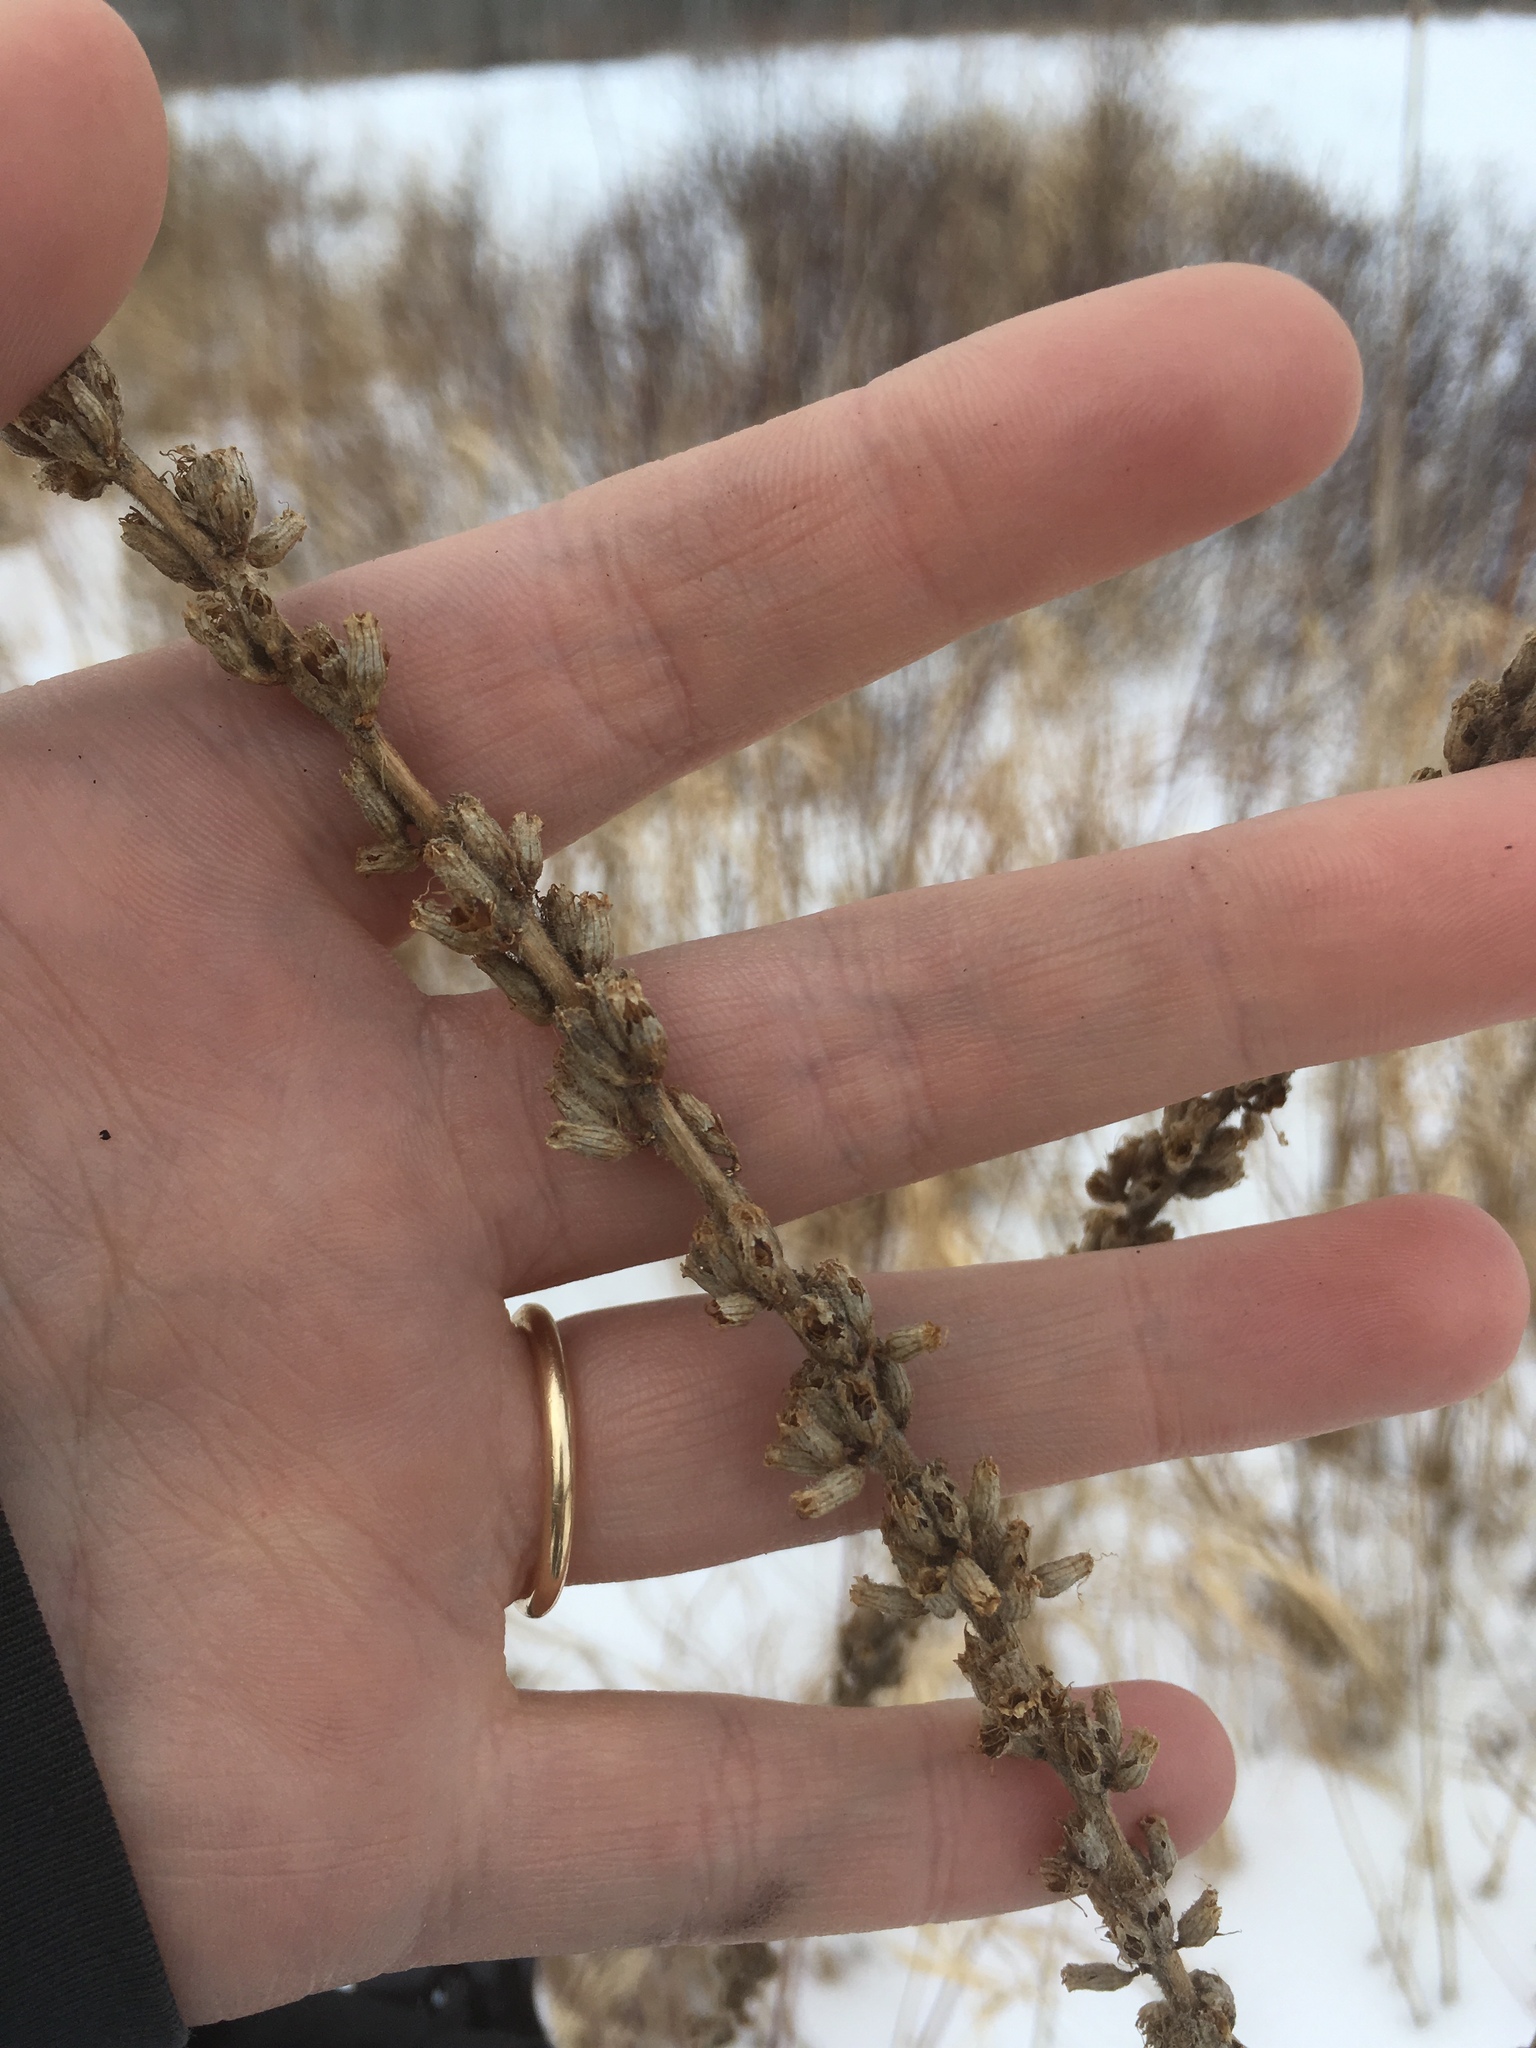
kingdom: Plantae
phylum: Tracheophyta
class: Magnoliopsida
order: Myrtales
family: Lythraceae
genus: Lythrum
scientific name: Lythrum salicaria
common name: Purple loosestrife
